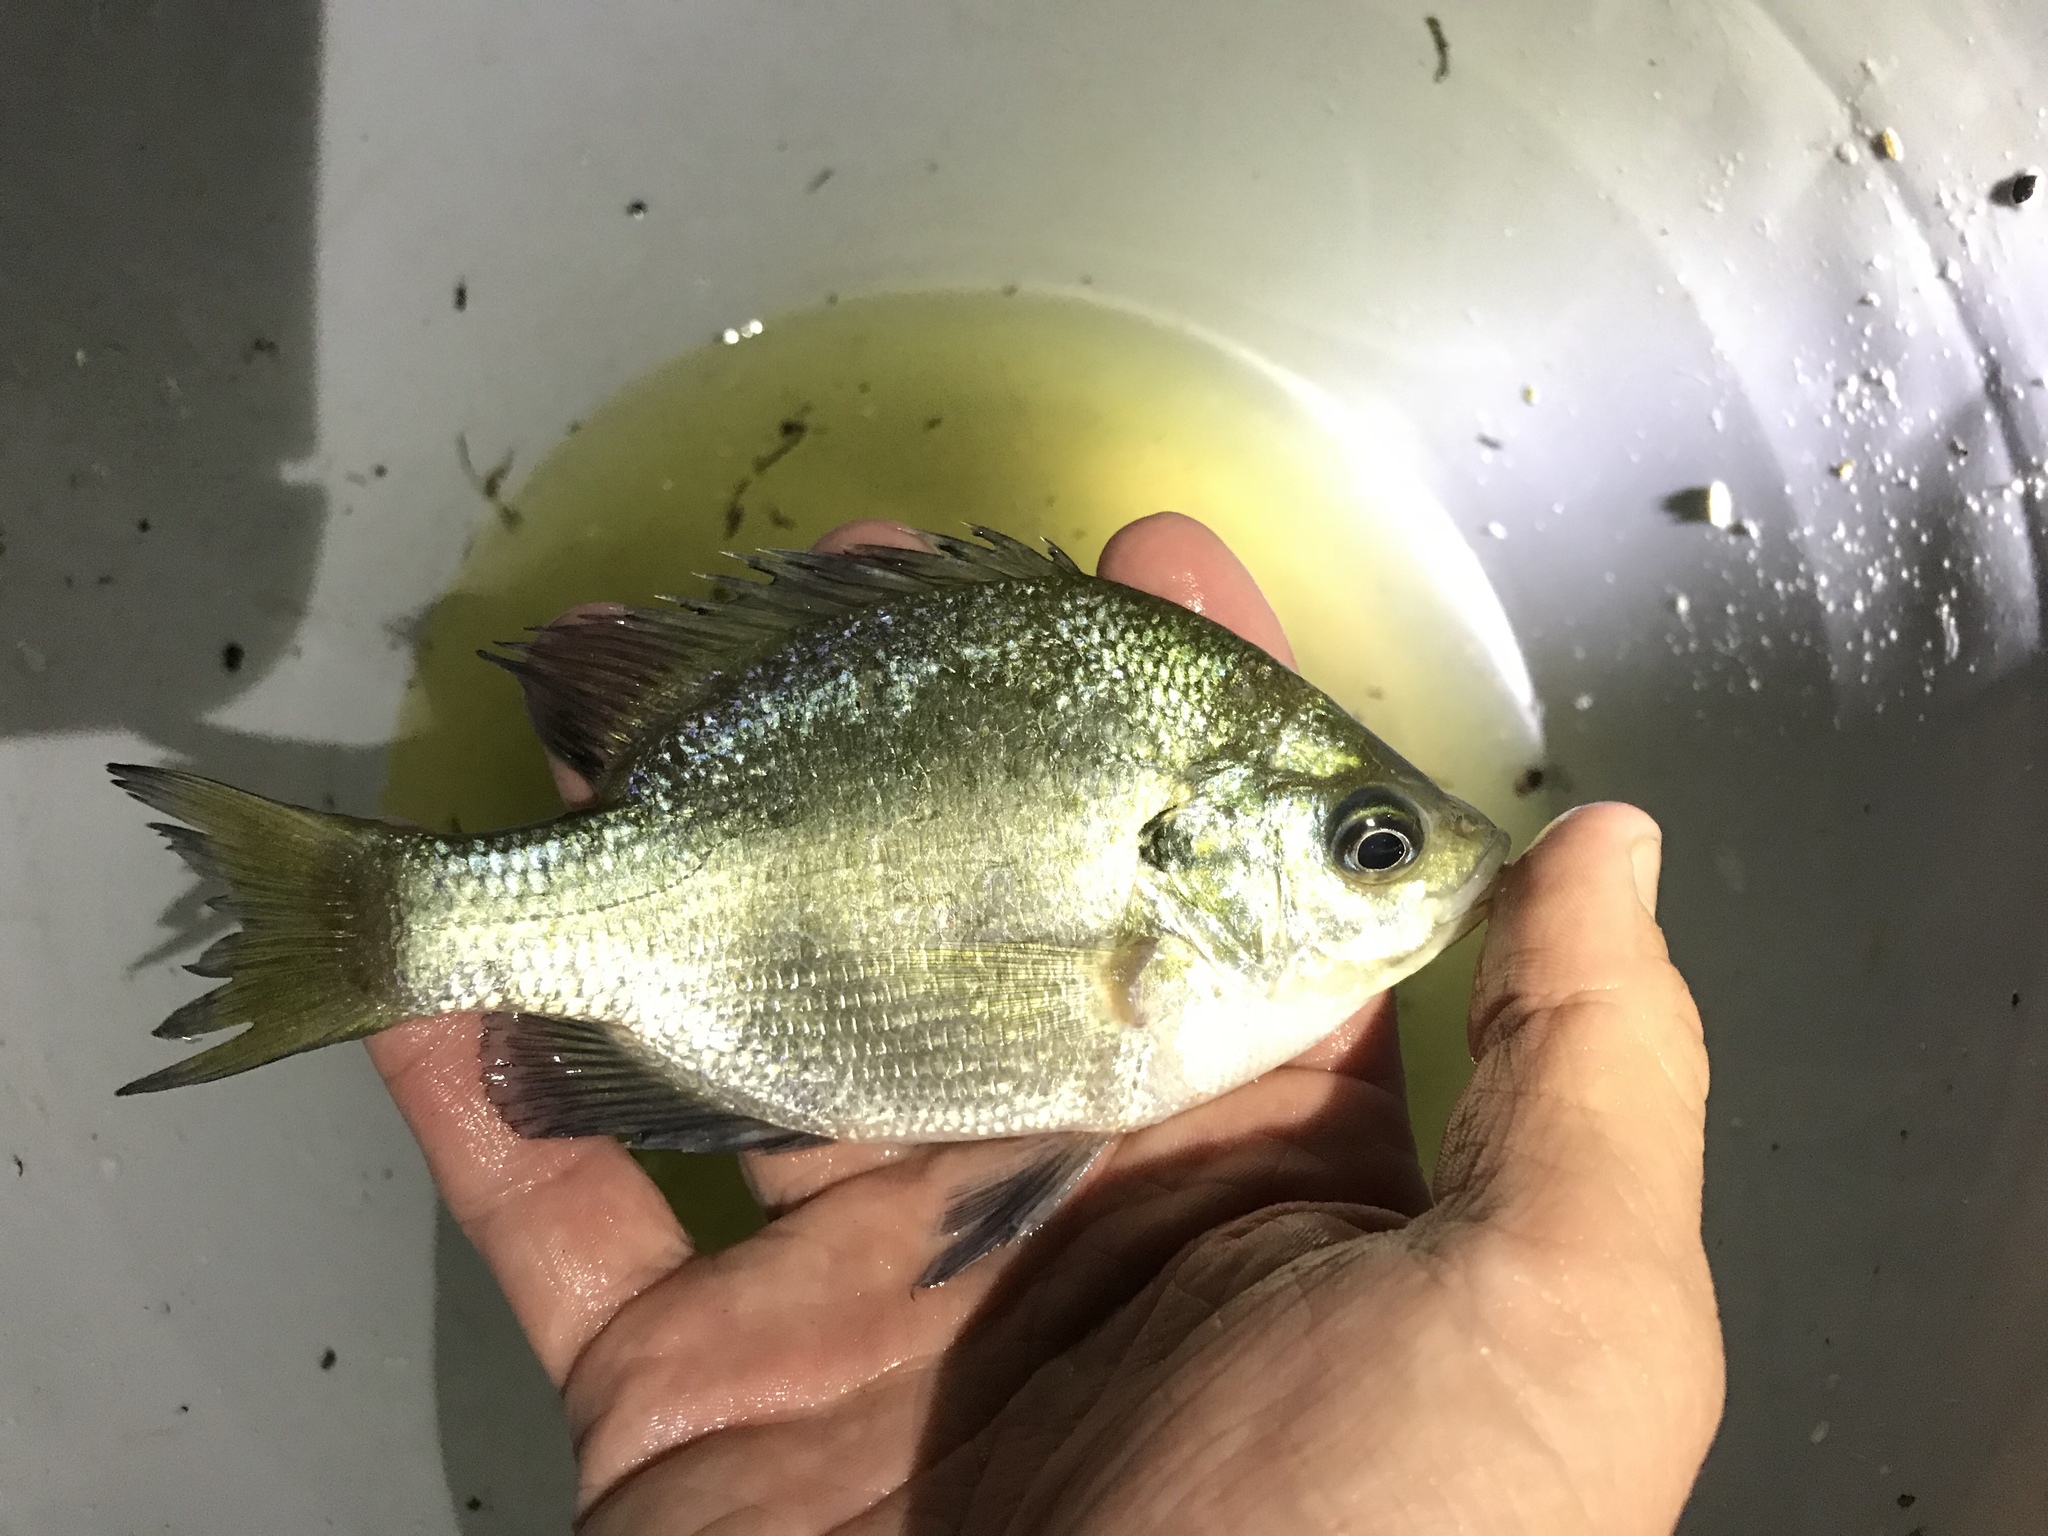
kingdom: Animalia
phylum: Chordata
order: Perciformes
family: Centrarchidae
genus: Lepomis
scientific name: Lepomis macrochirus
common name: Bluegill
